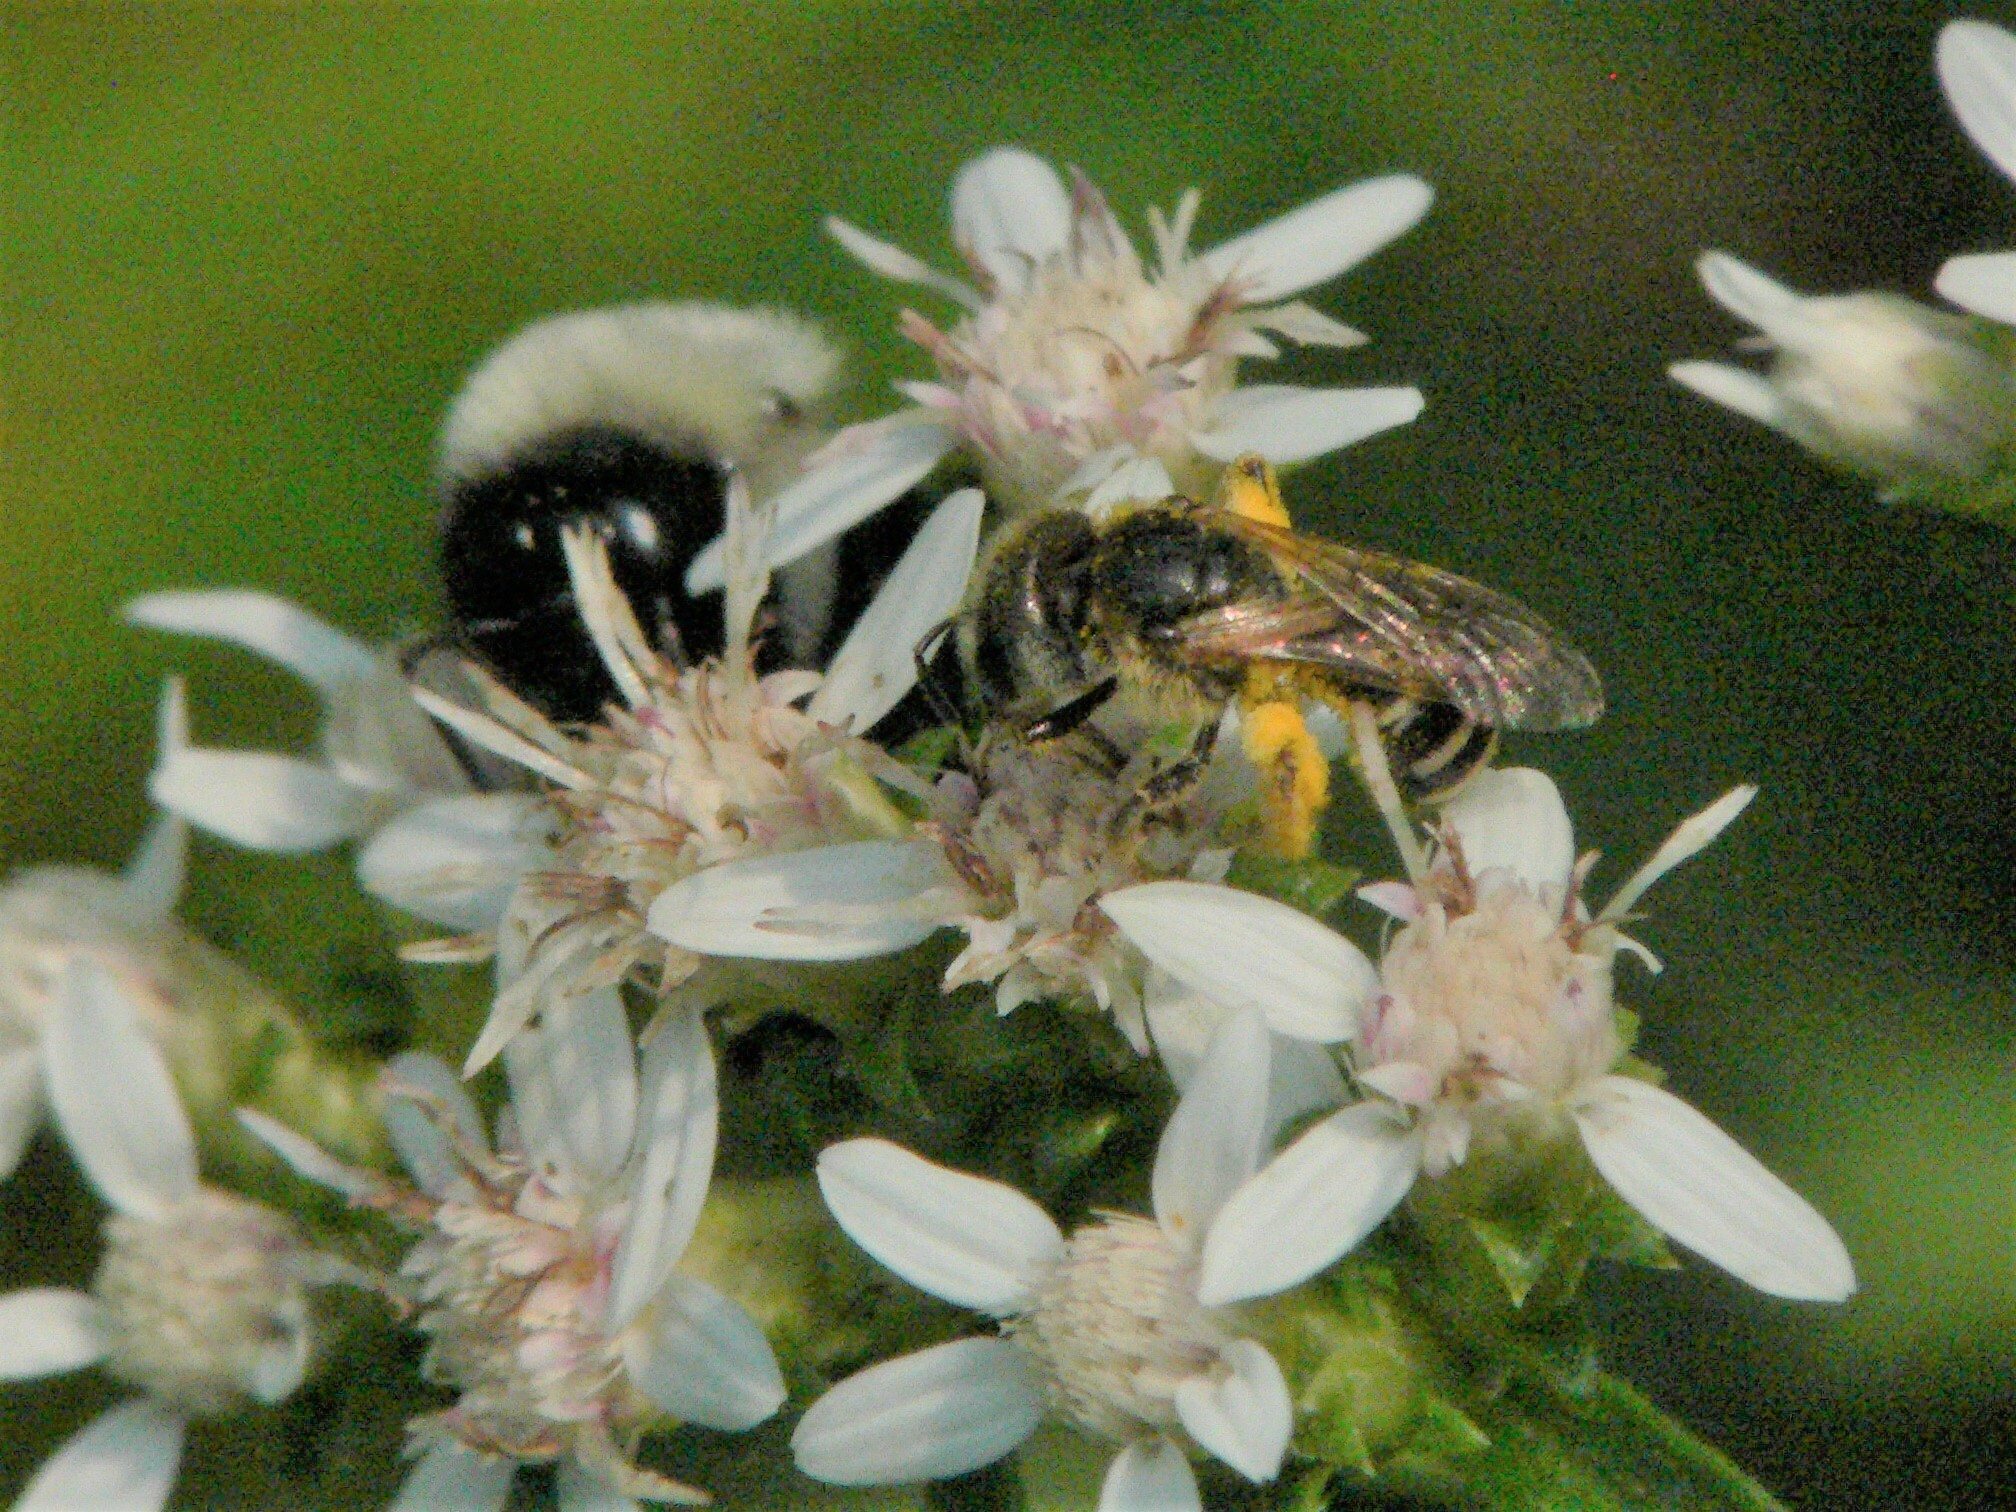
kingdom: Animalia
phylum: Arthropoda
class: Insecta
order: Hymenoptera
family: Halictidae
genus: Halictus
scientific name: Halictus ligatus
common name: Ligated furrow bee
